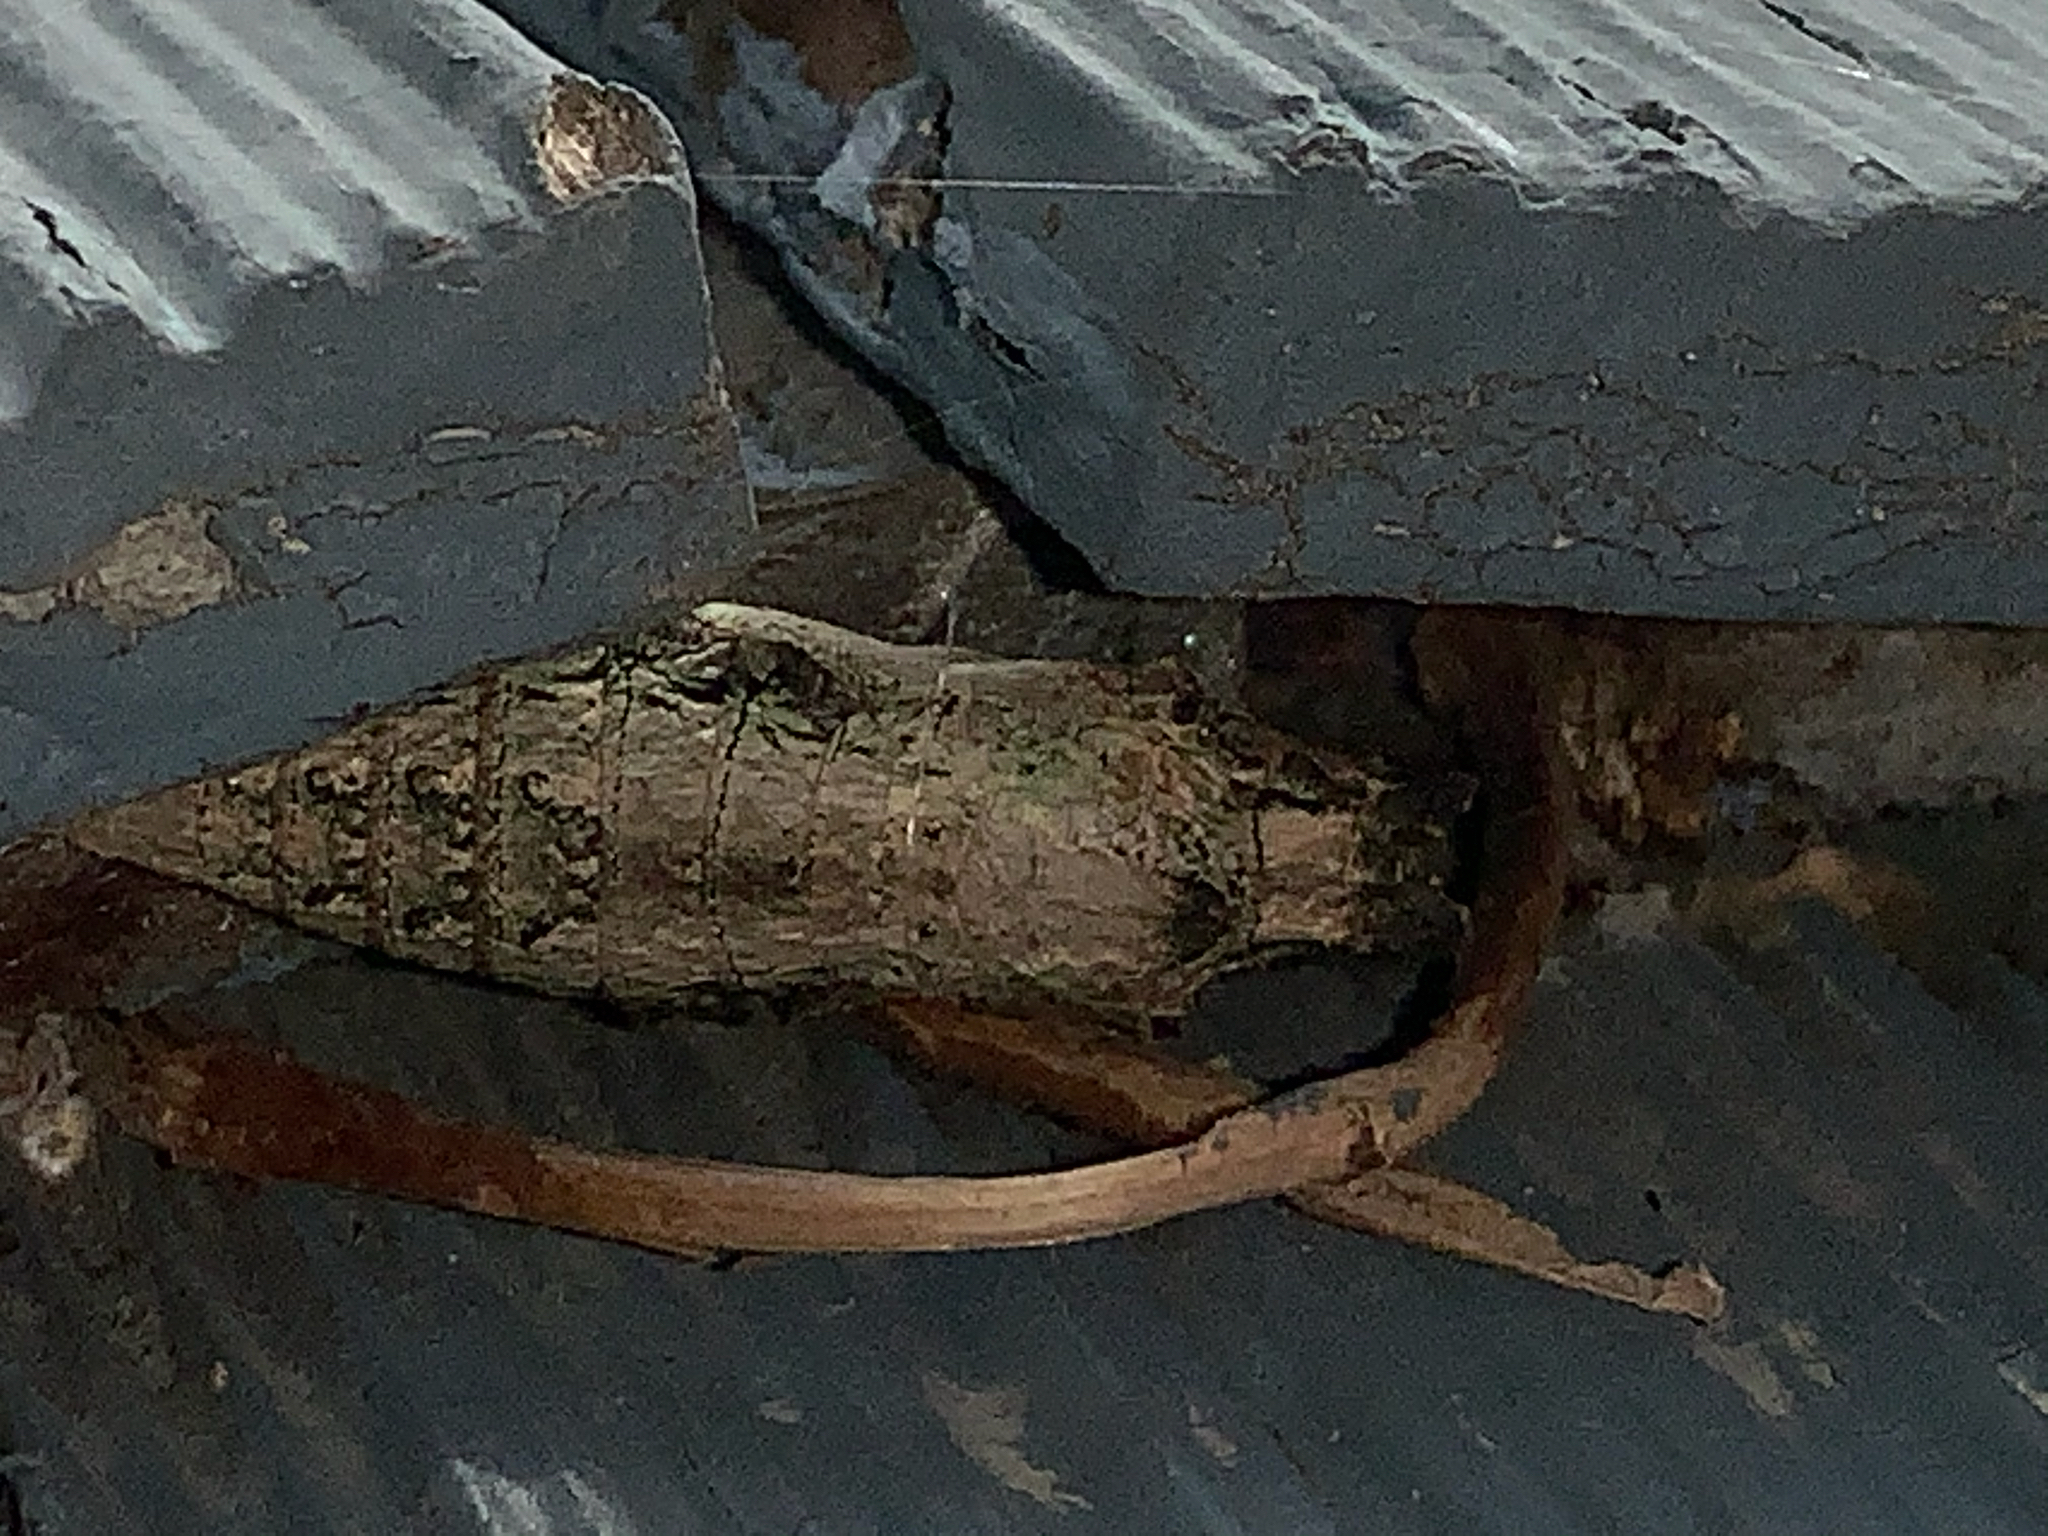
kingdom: Animalia
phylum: Arthropoda
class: Insecta
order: Lepidoptera
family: Papilionidae
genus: Papilio
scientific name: Papilio polyxenes
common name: Black swallowtail
